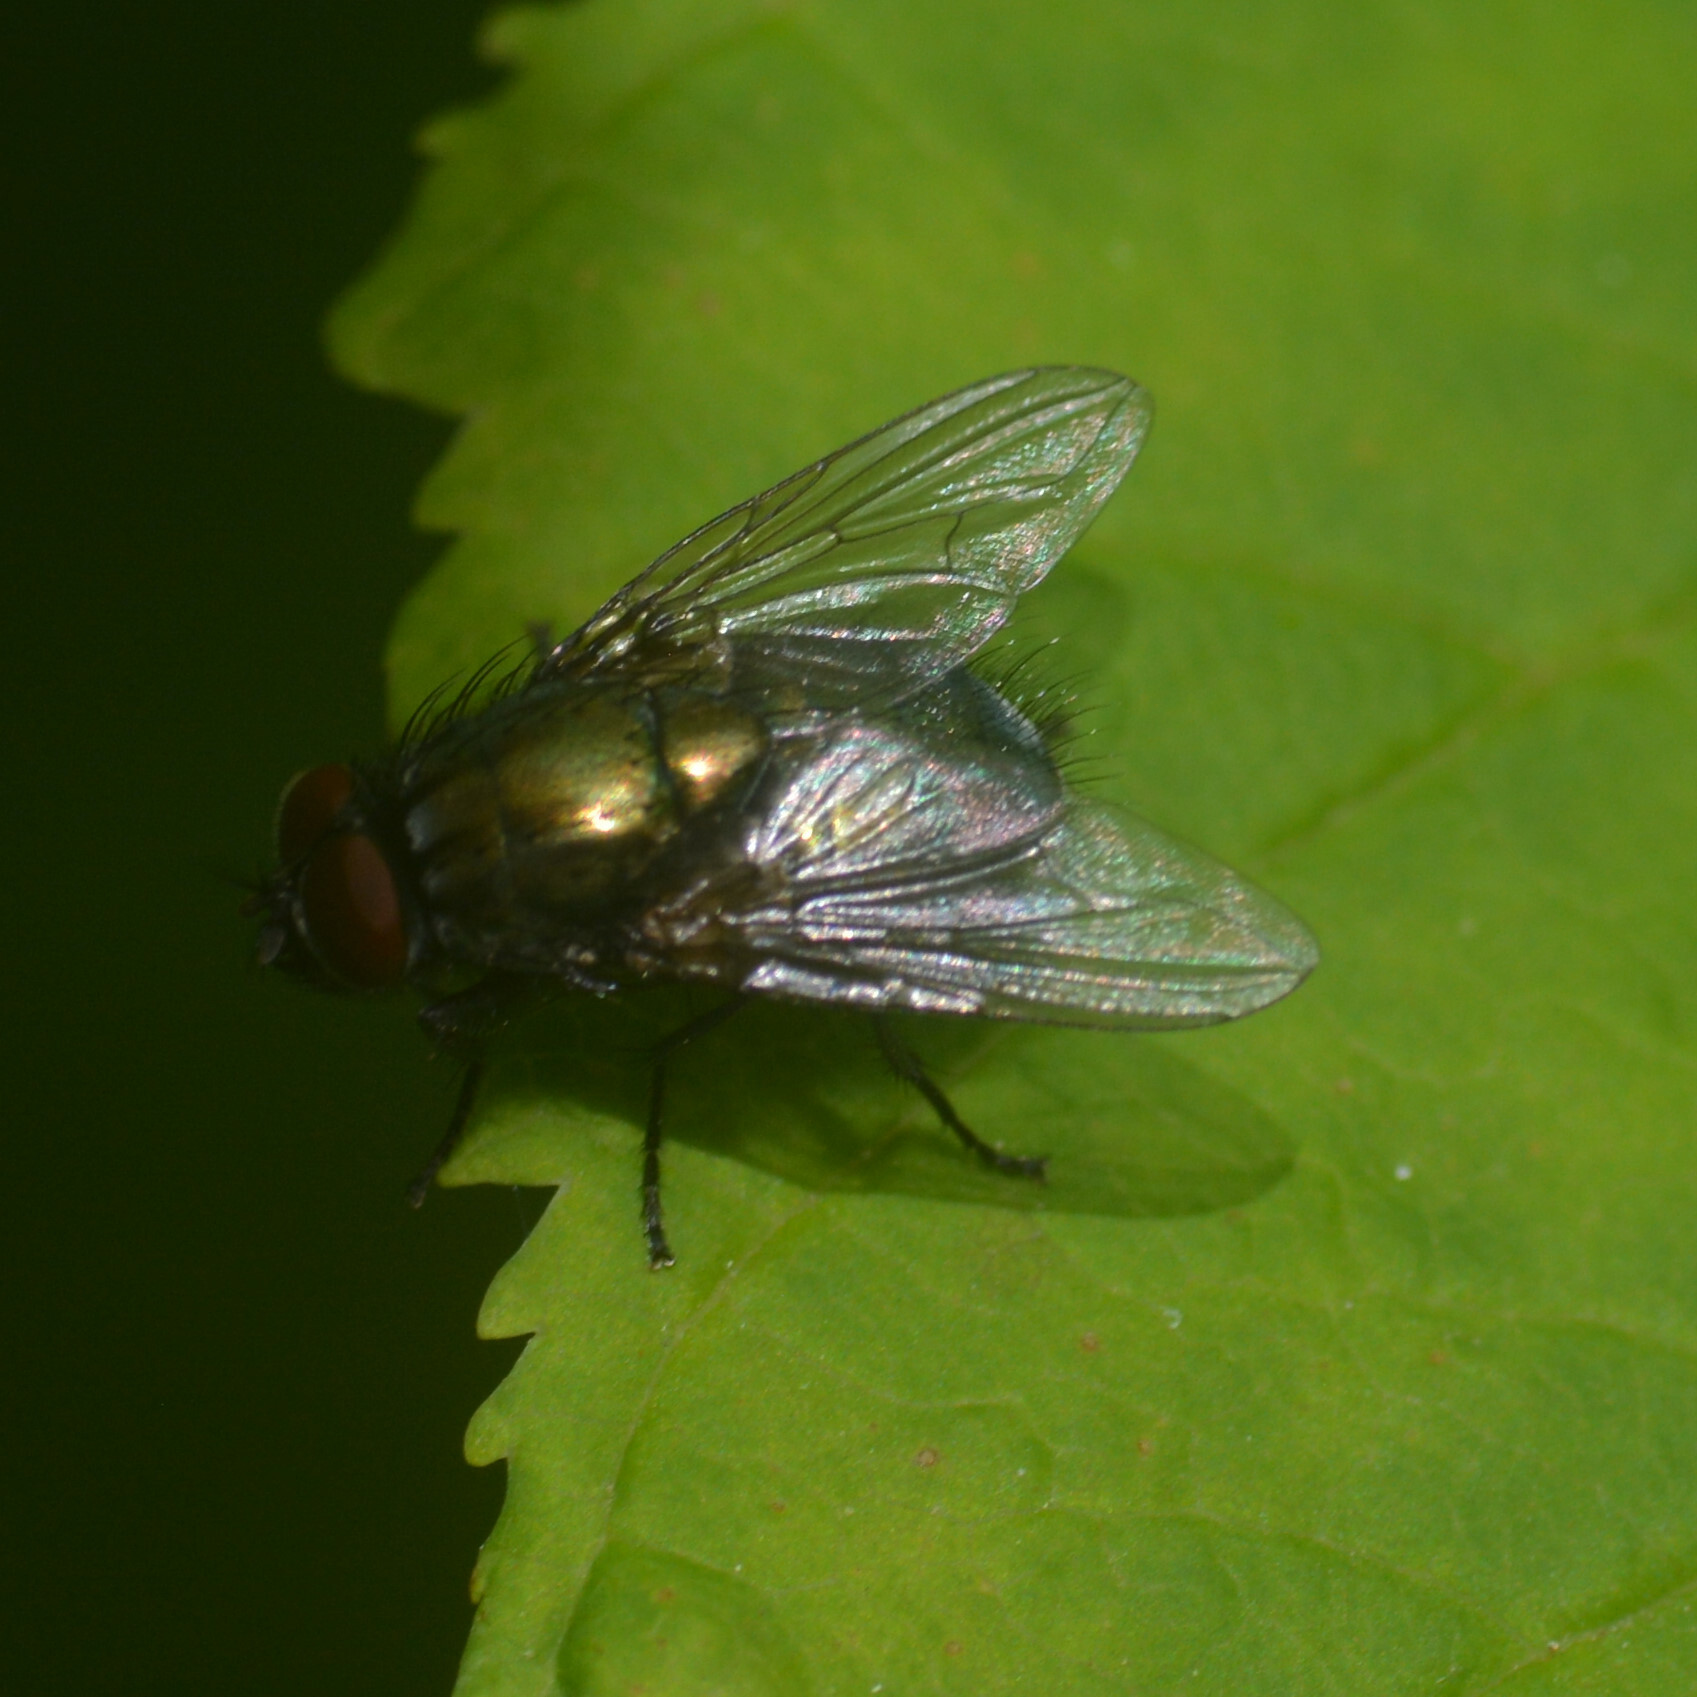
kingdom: Animalia
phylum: Arthropoda
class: Insecta
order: Diptera
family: Muscidae
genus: Dasyphora
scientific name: Dasyphora cyanella
